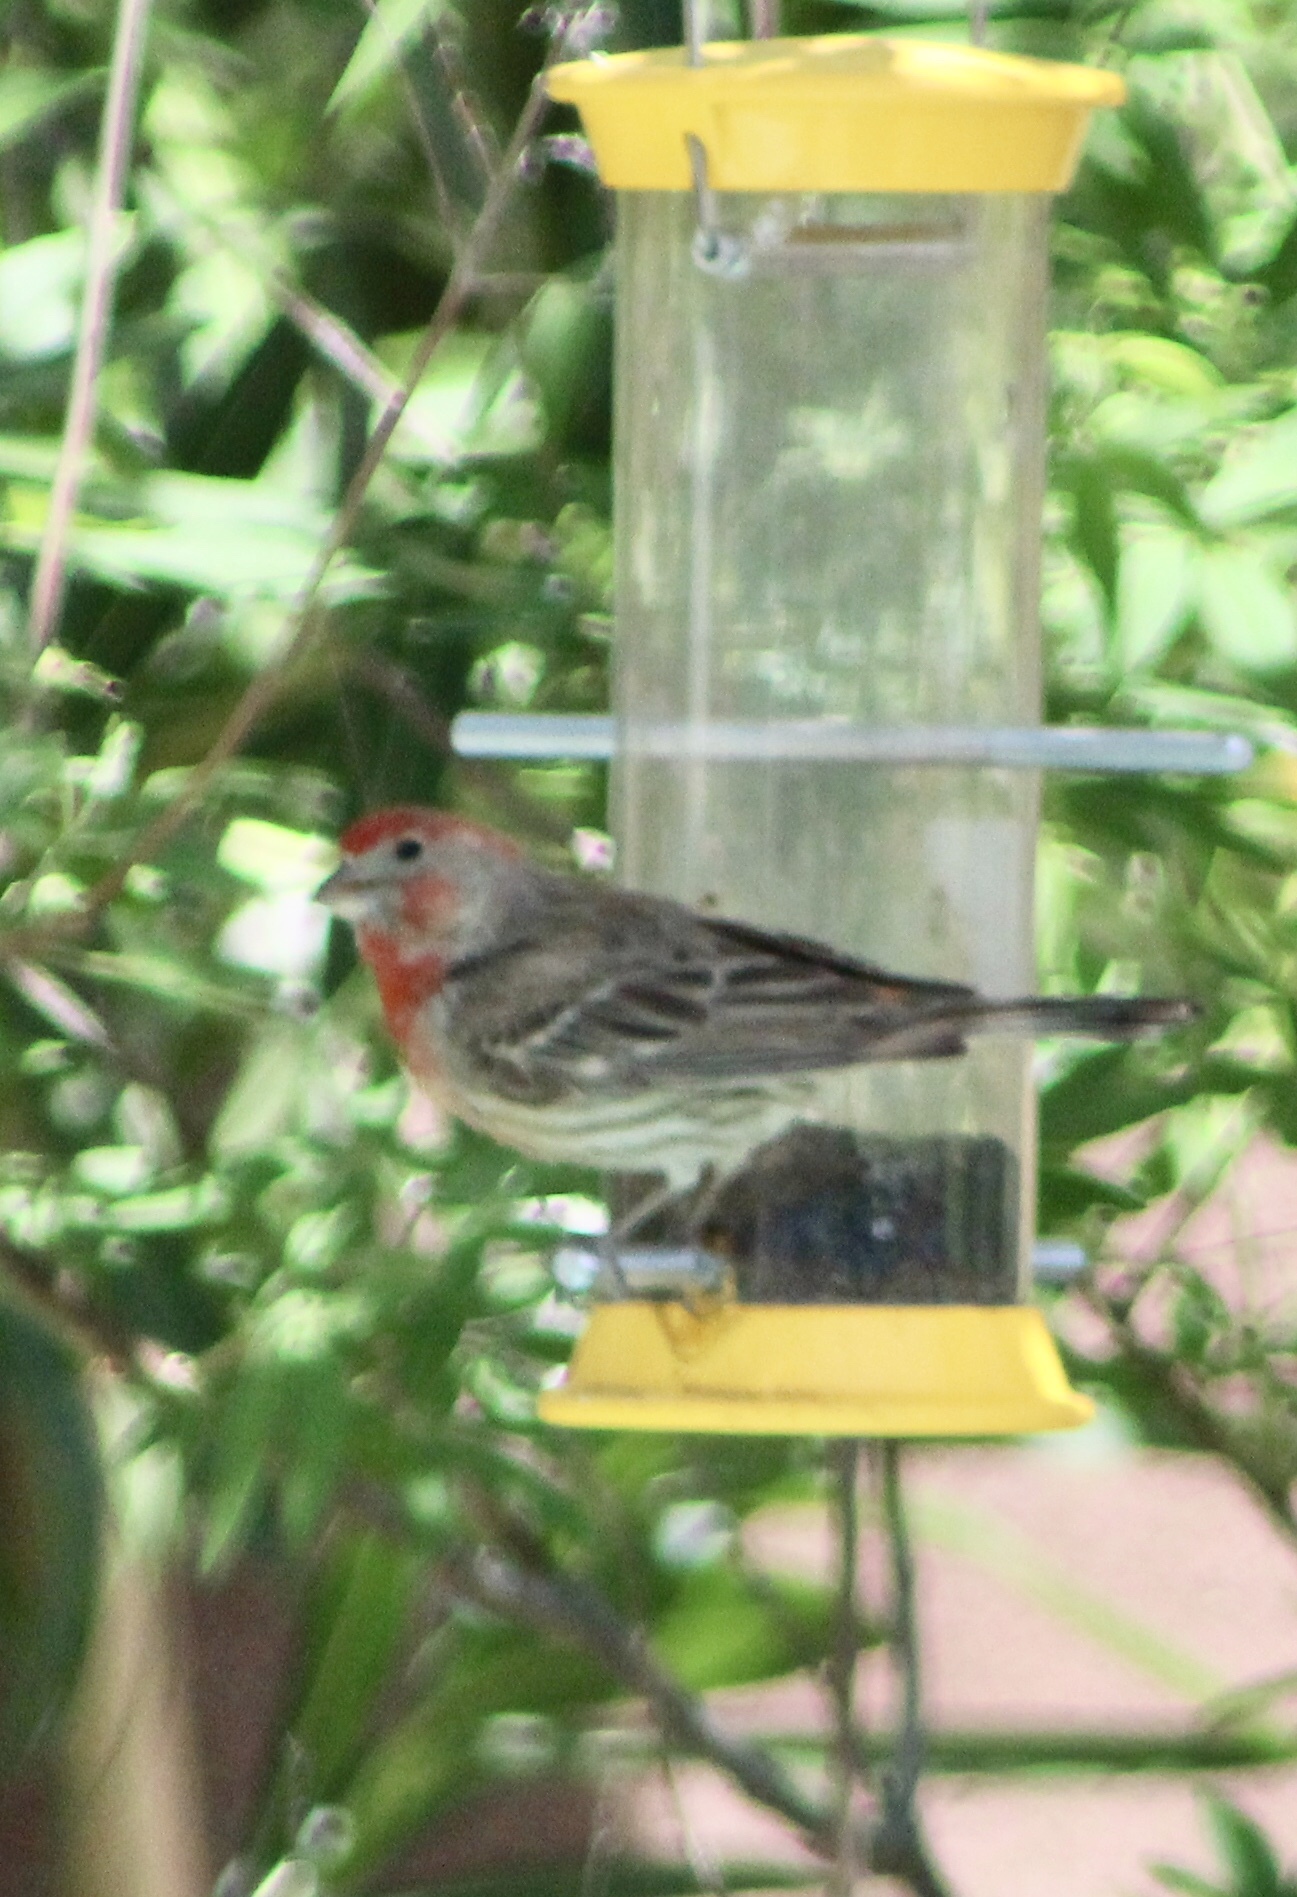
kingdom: Animalia
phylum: Chordata
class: Aves
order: Passeriformes
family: Fringillidae
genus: Haemorhous
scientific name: Haemorhous mexicanus
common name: House finch
